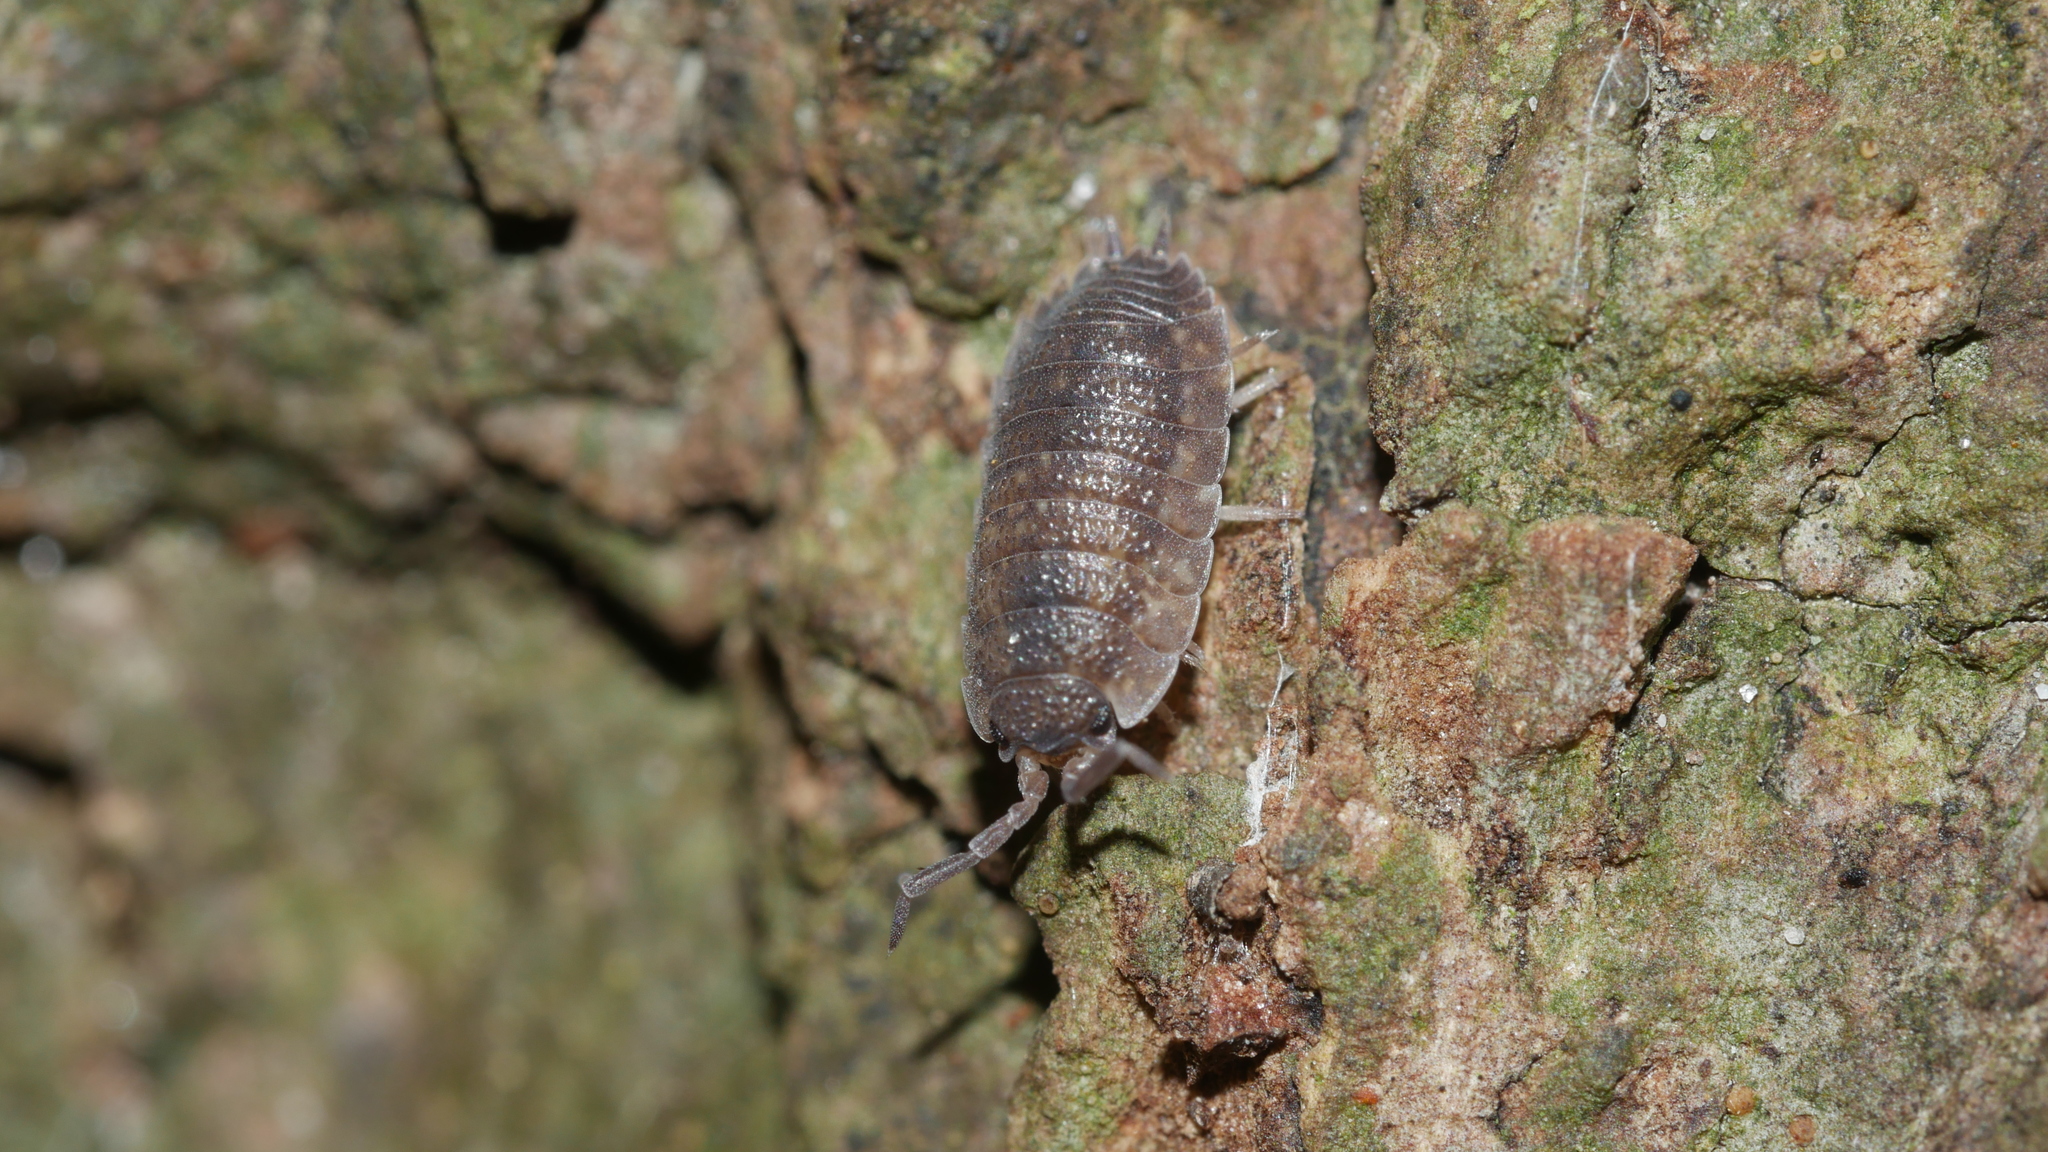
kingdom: Animalia
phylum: Arthropoda
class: Malacostraca
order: Isopoda
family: Porcellionidae
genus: Porcellio
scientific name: Porcellio scaber
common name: Common rough woodlouse
